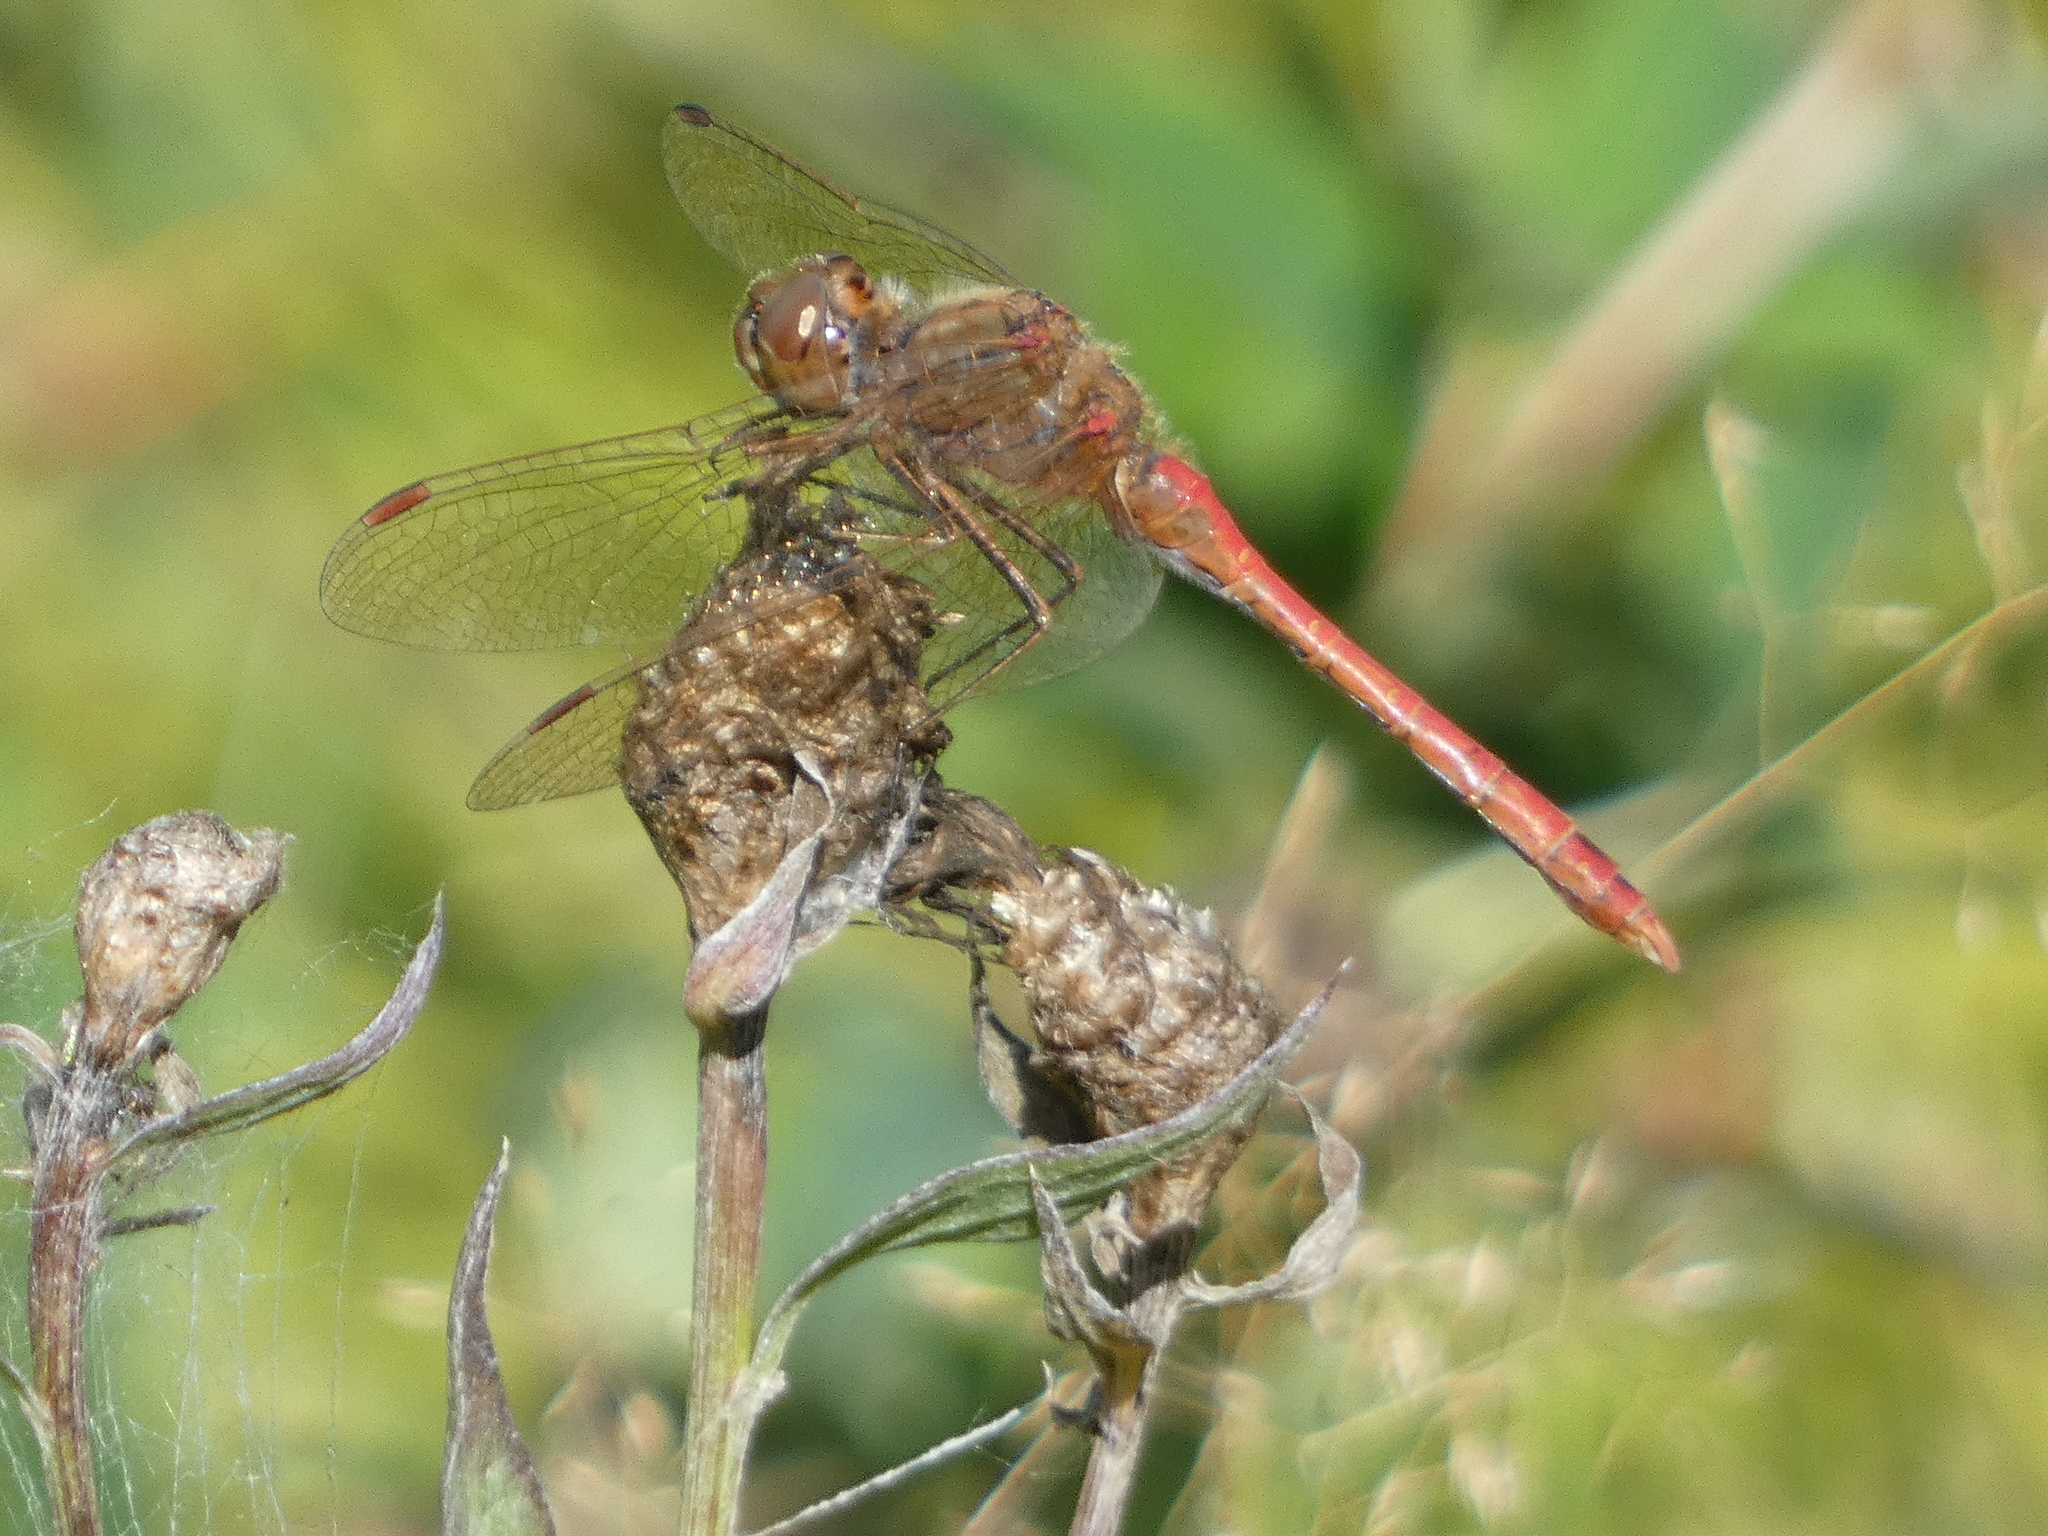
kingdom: Animalia
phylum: Arthropoda
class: Insecta
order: Odonata
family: Libellulidae
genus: Sympetrum
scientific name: Sympetrum vulgatum
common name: Vagrant darter
